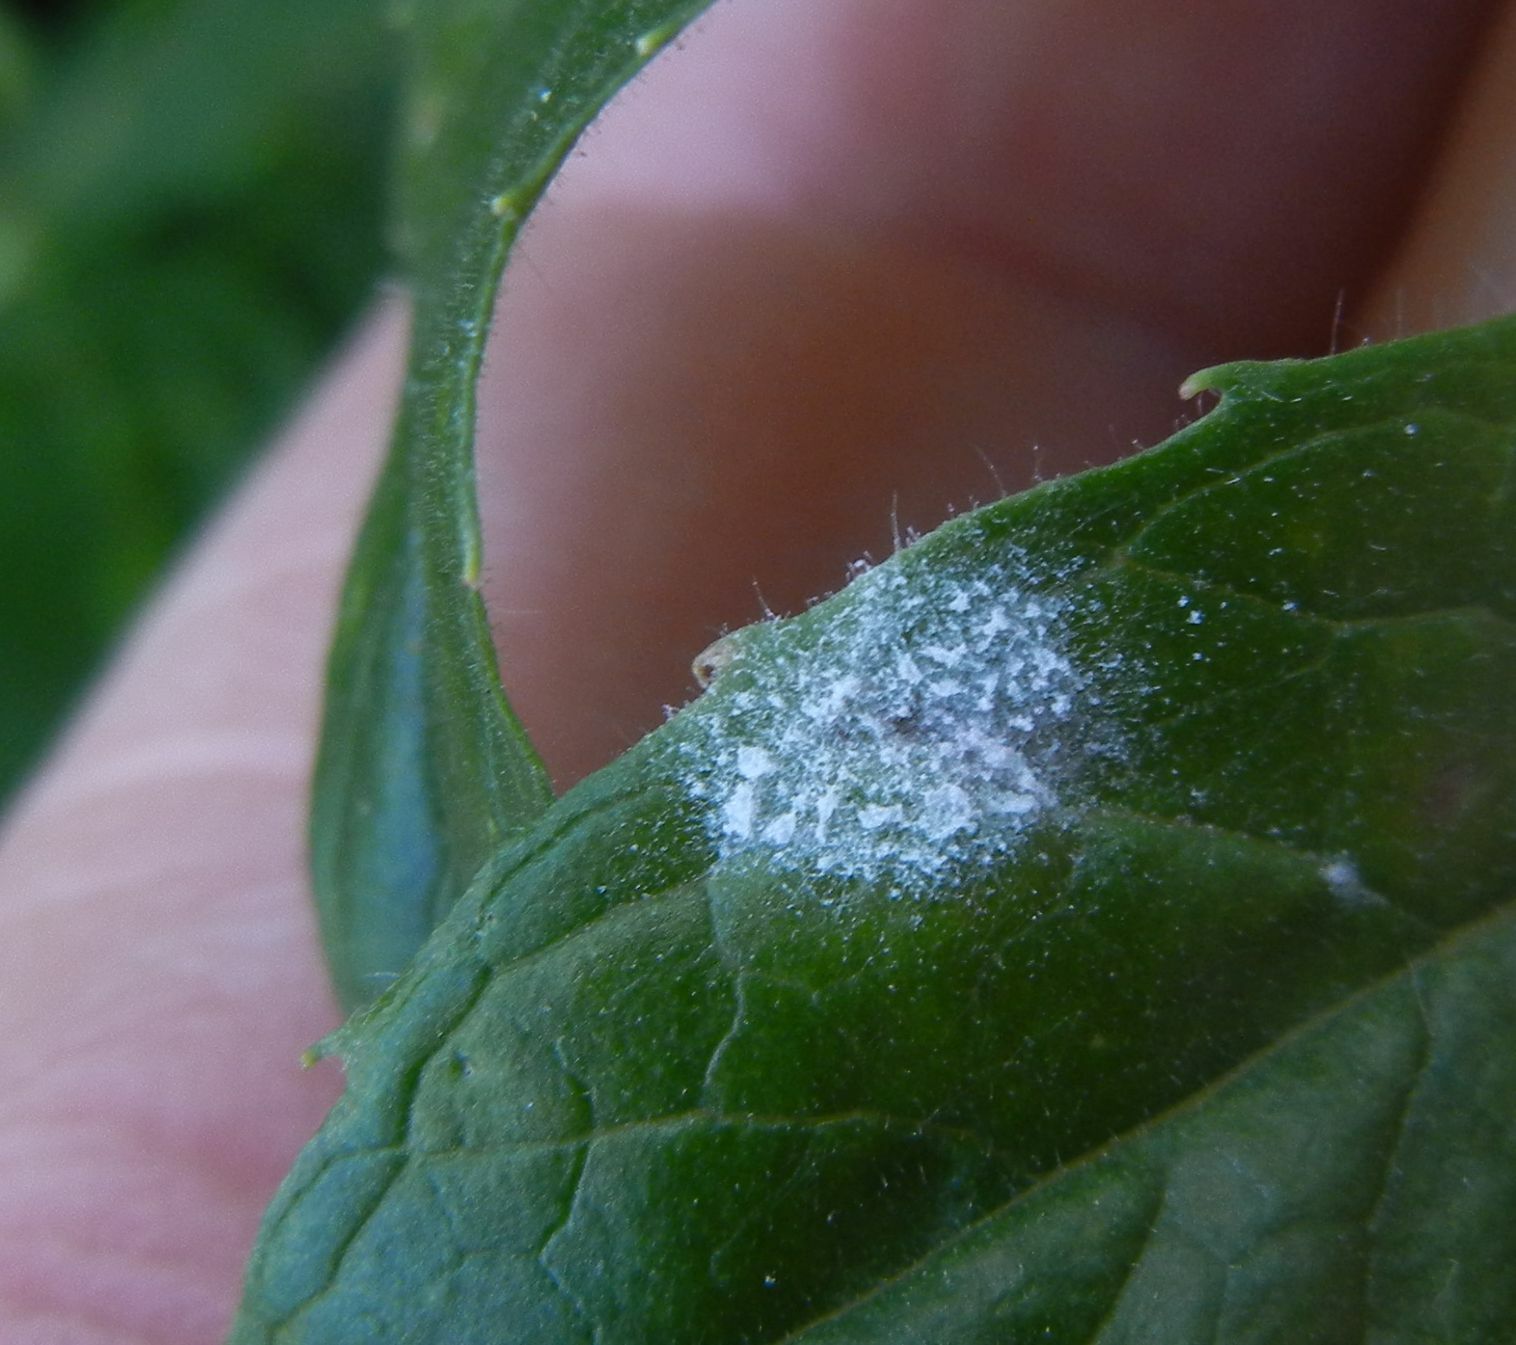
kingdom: Fungi
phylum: Ascomycota
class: Leotiomycetes
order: Helotiales
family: Erysiphaceae
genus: Podosphaera
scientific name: Podosphaera epilobii
